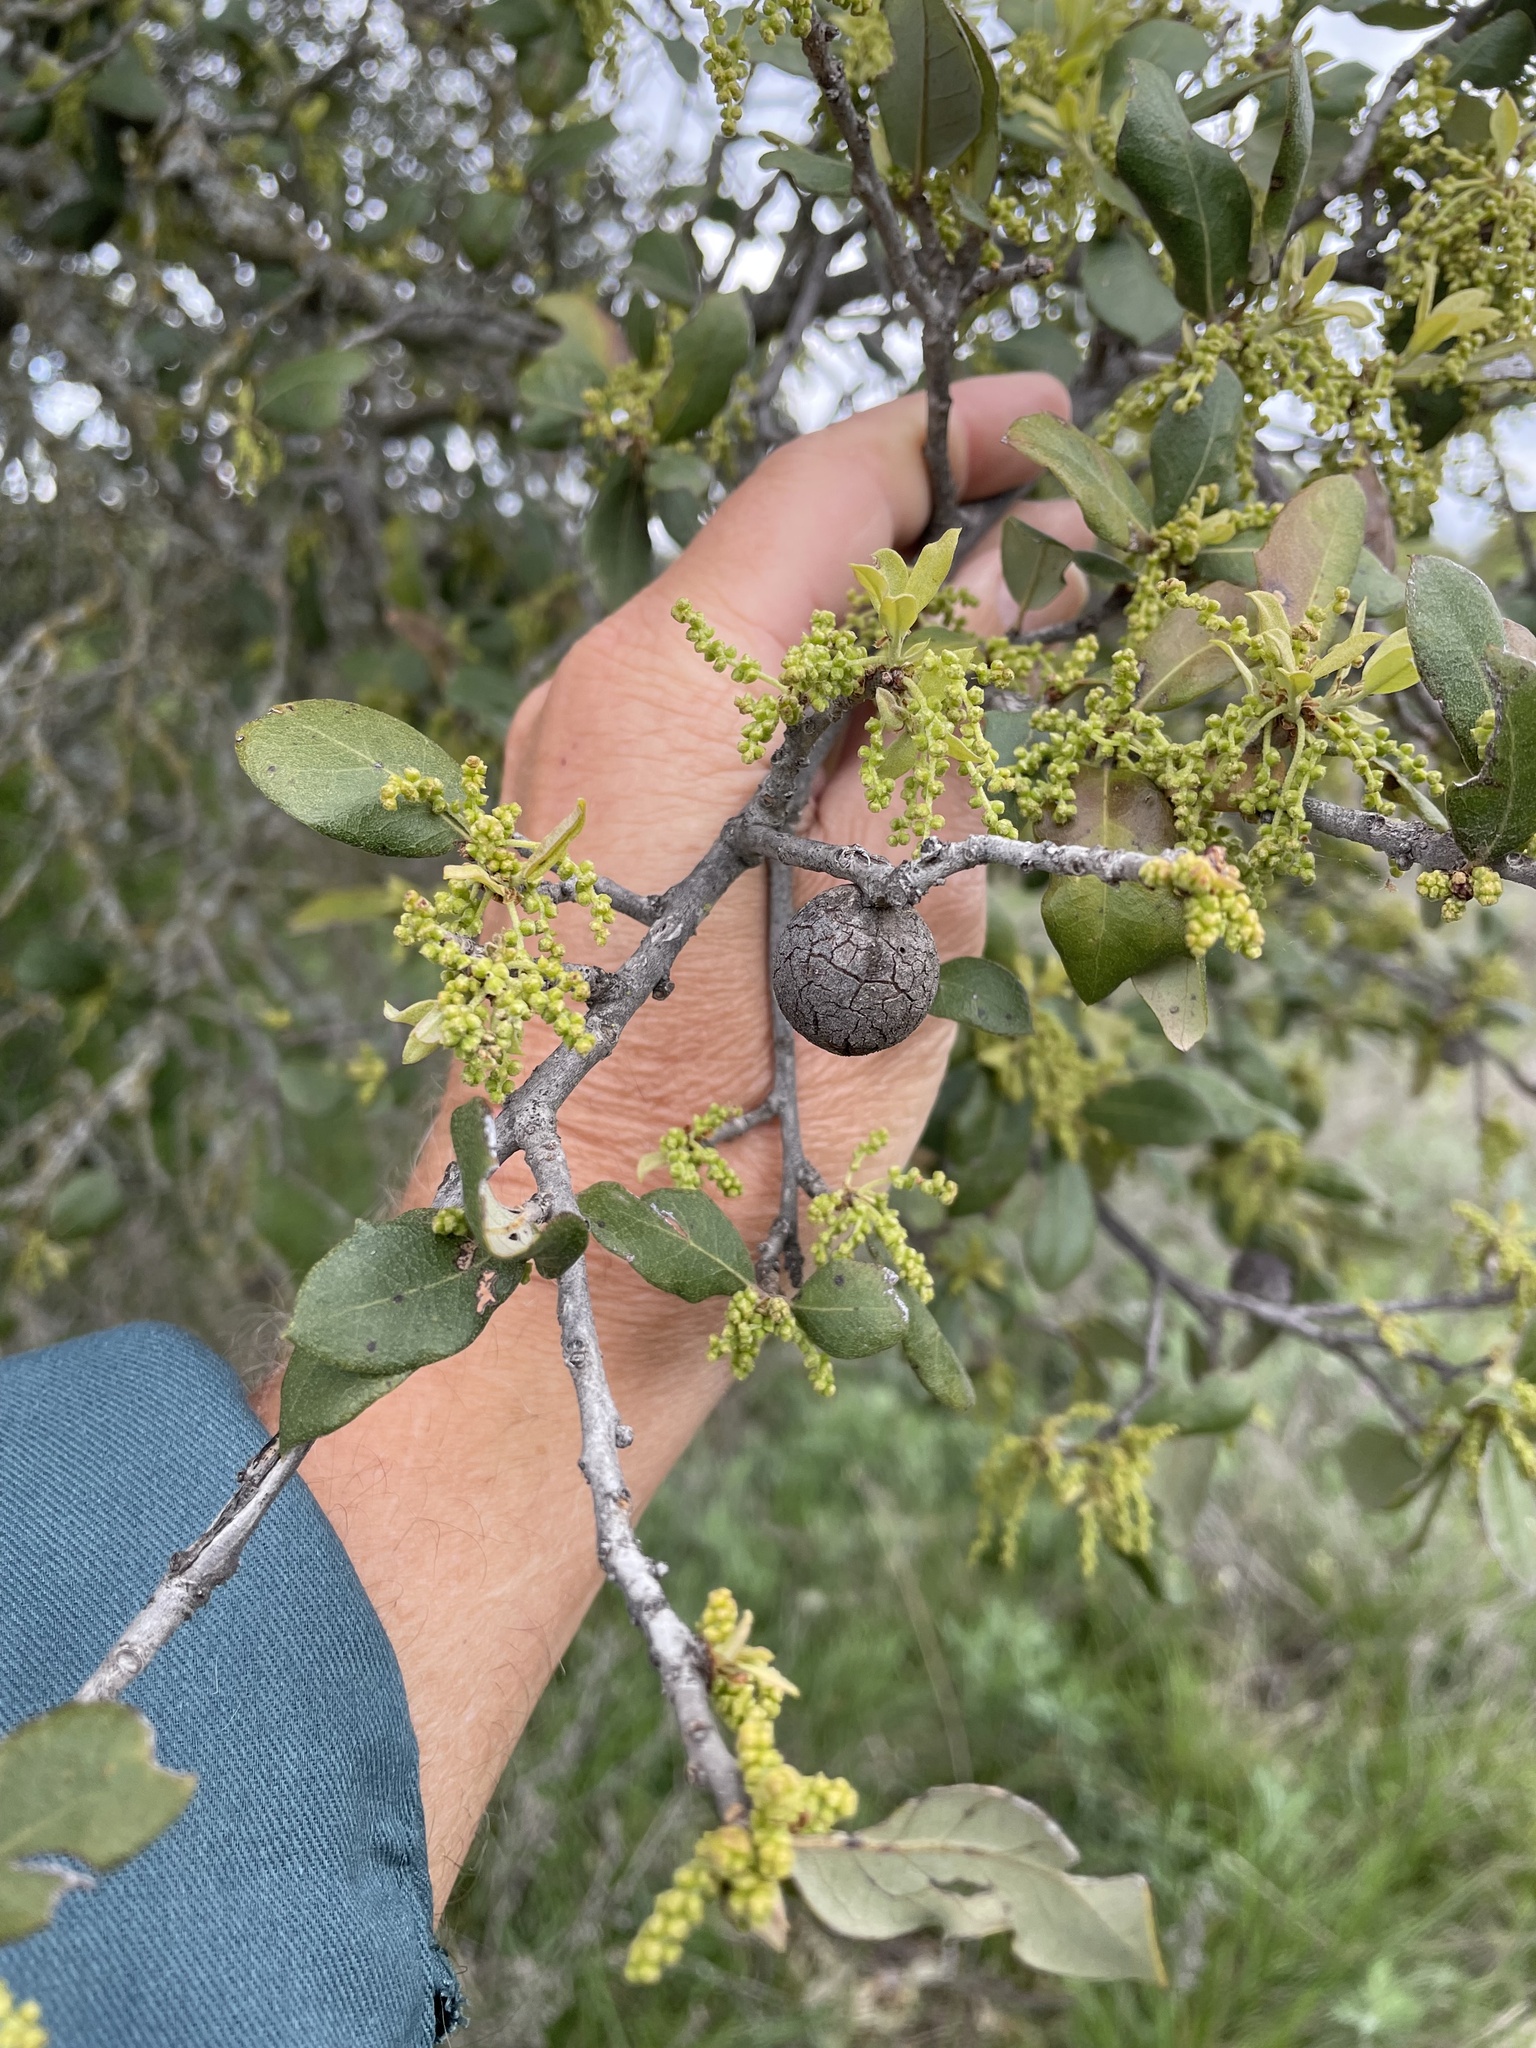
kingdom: Plantae
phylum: Tracheophyta
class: Magnoliopsida
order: Fagales
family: Fagaceae
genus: Quercus
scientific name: Quercus fusiformis
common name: Texas live oak
